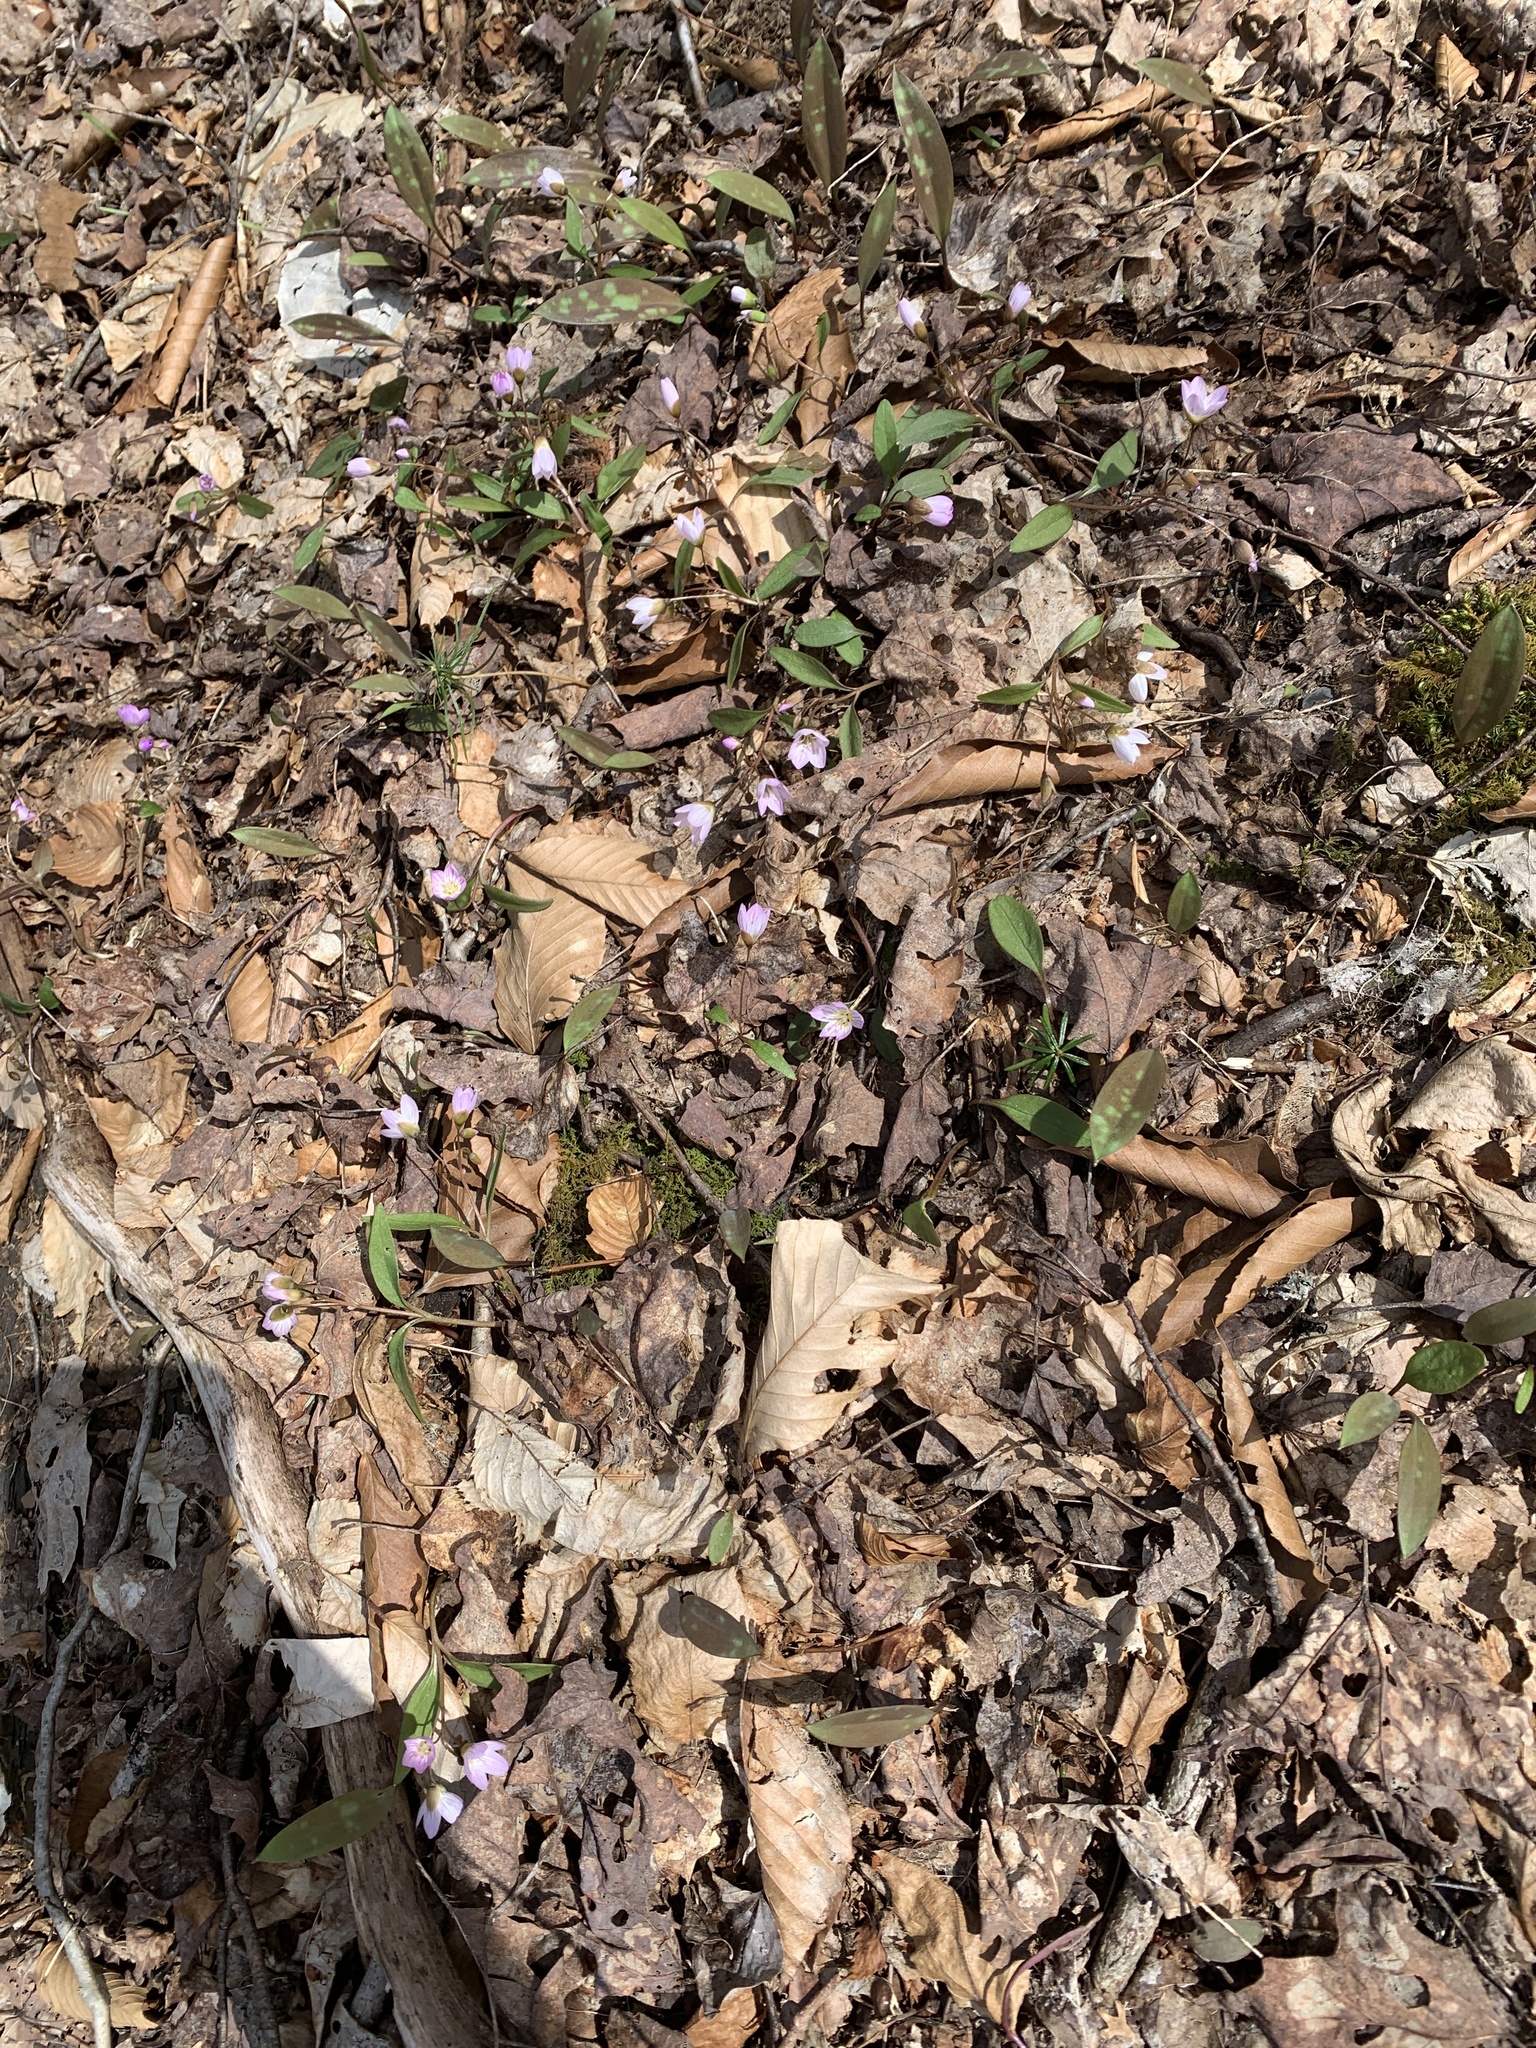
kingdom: Plantae
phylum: Tracheophyta
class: Magnoliopsida
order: Caryophyllales
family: Montiaceae
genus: Claytonia
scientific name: Claytonia caroliniana
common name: Carolina spring beauty
